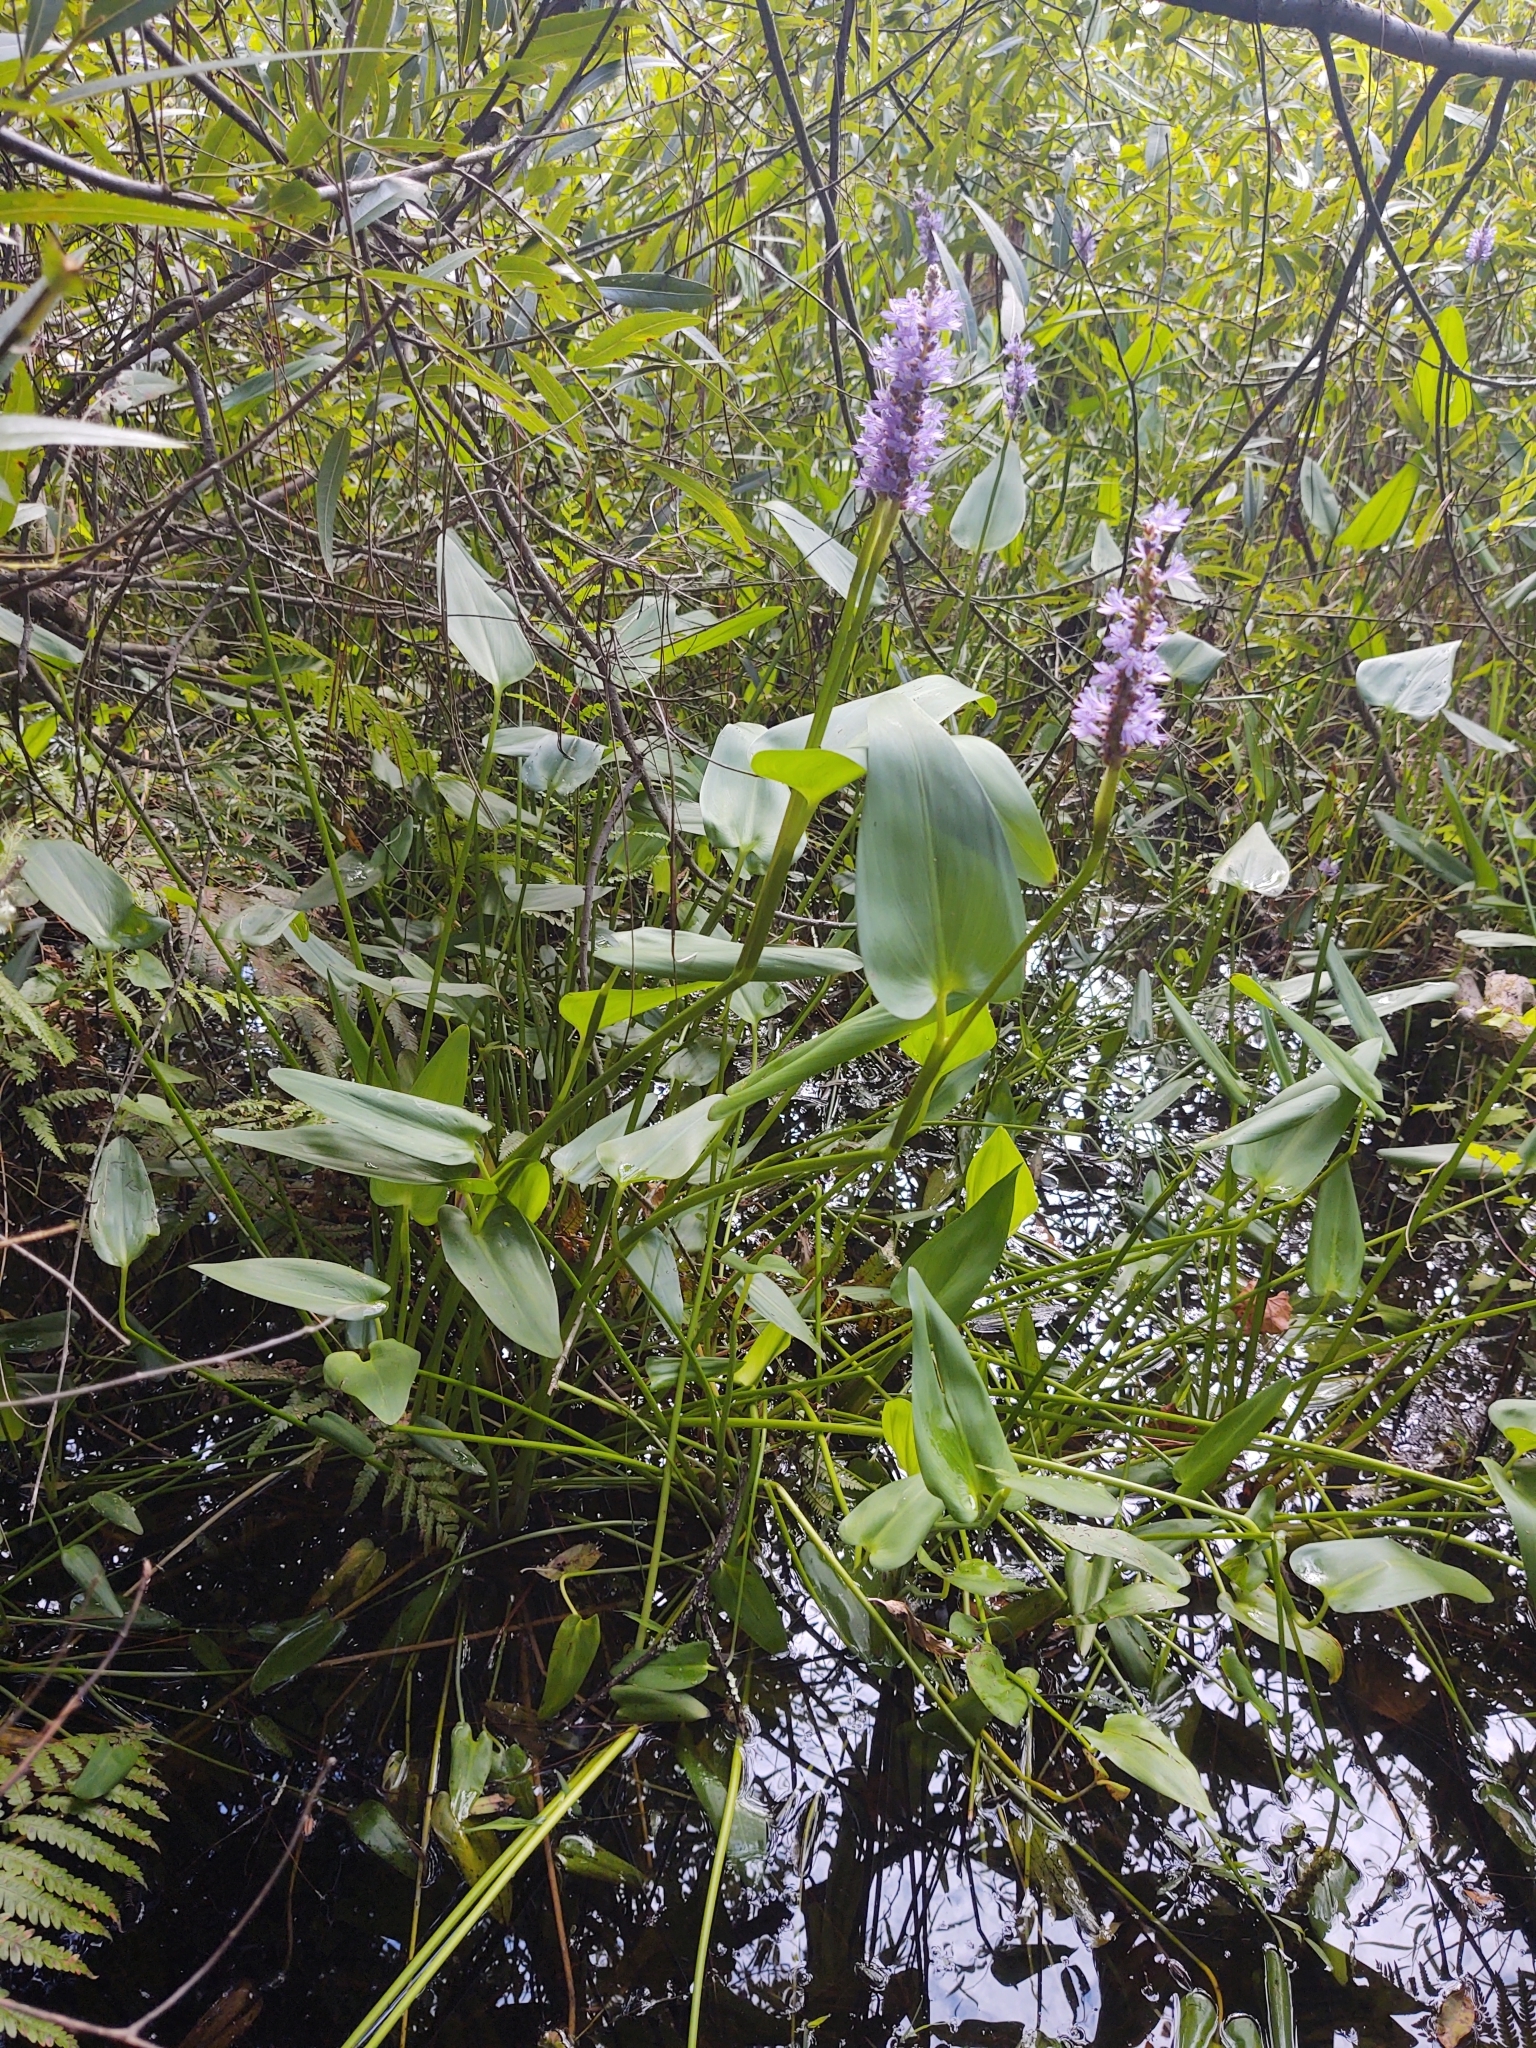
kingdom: Plantae
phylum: Tracheophyta
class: Liliopsida
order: Commelinales
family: Pontederiaceae
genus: Pontederia
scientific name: Pontederia cordata
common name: Pickerelweed
